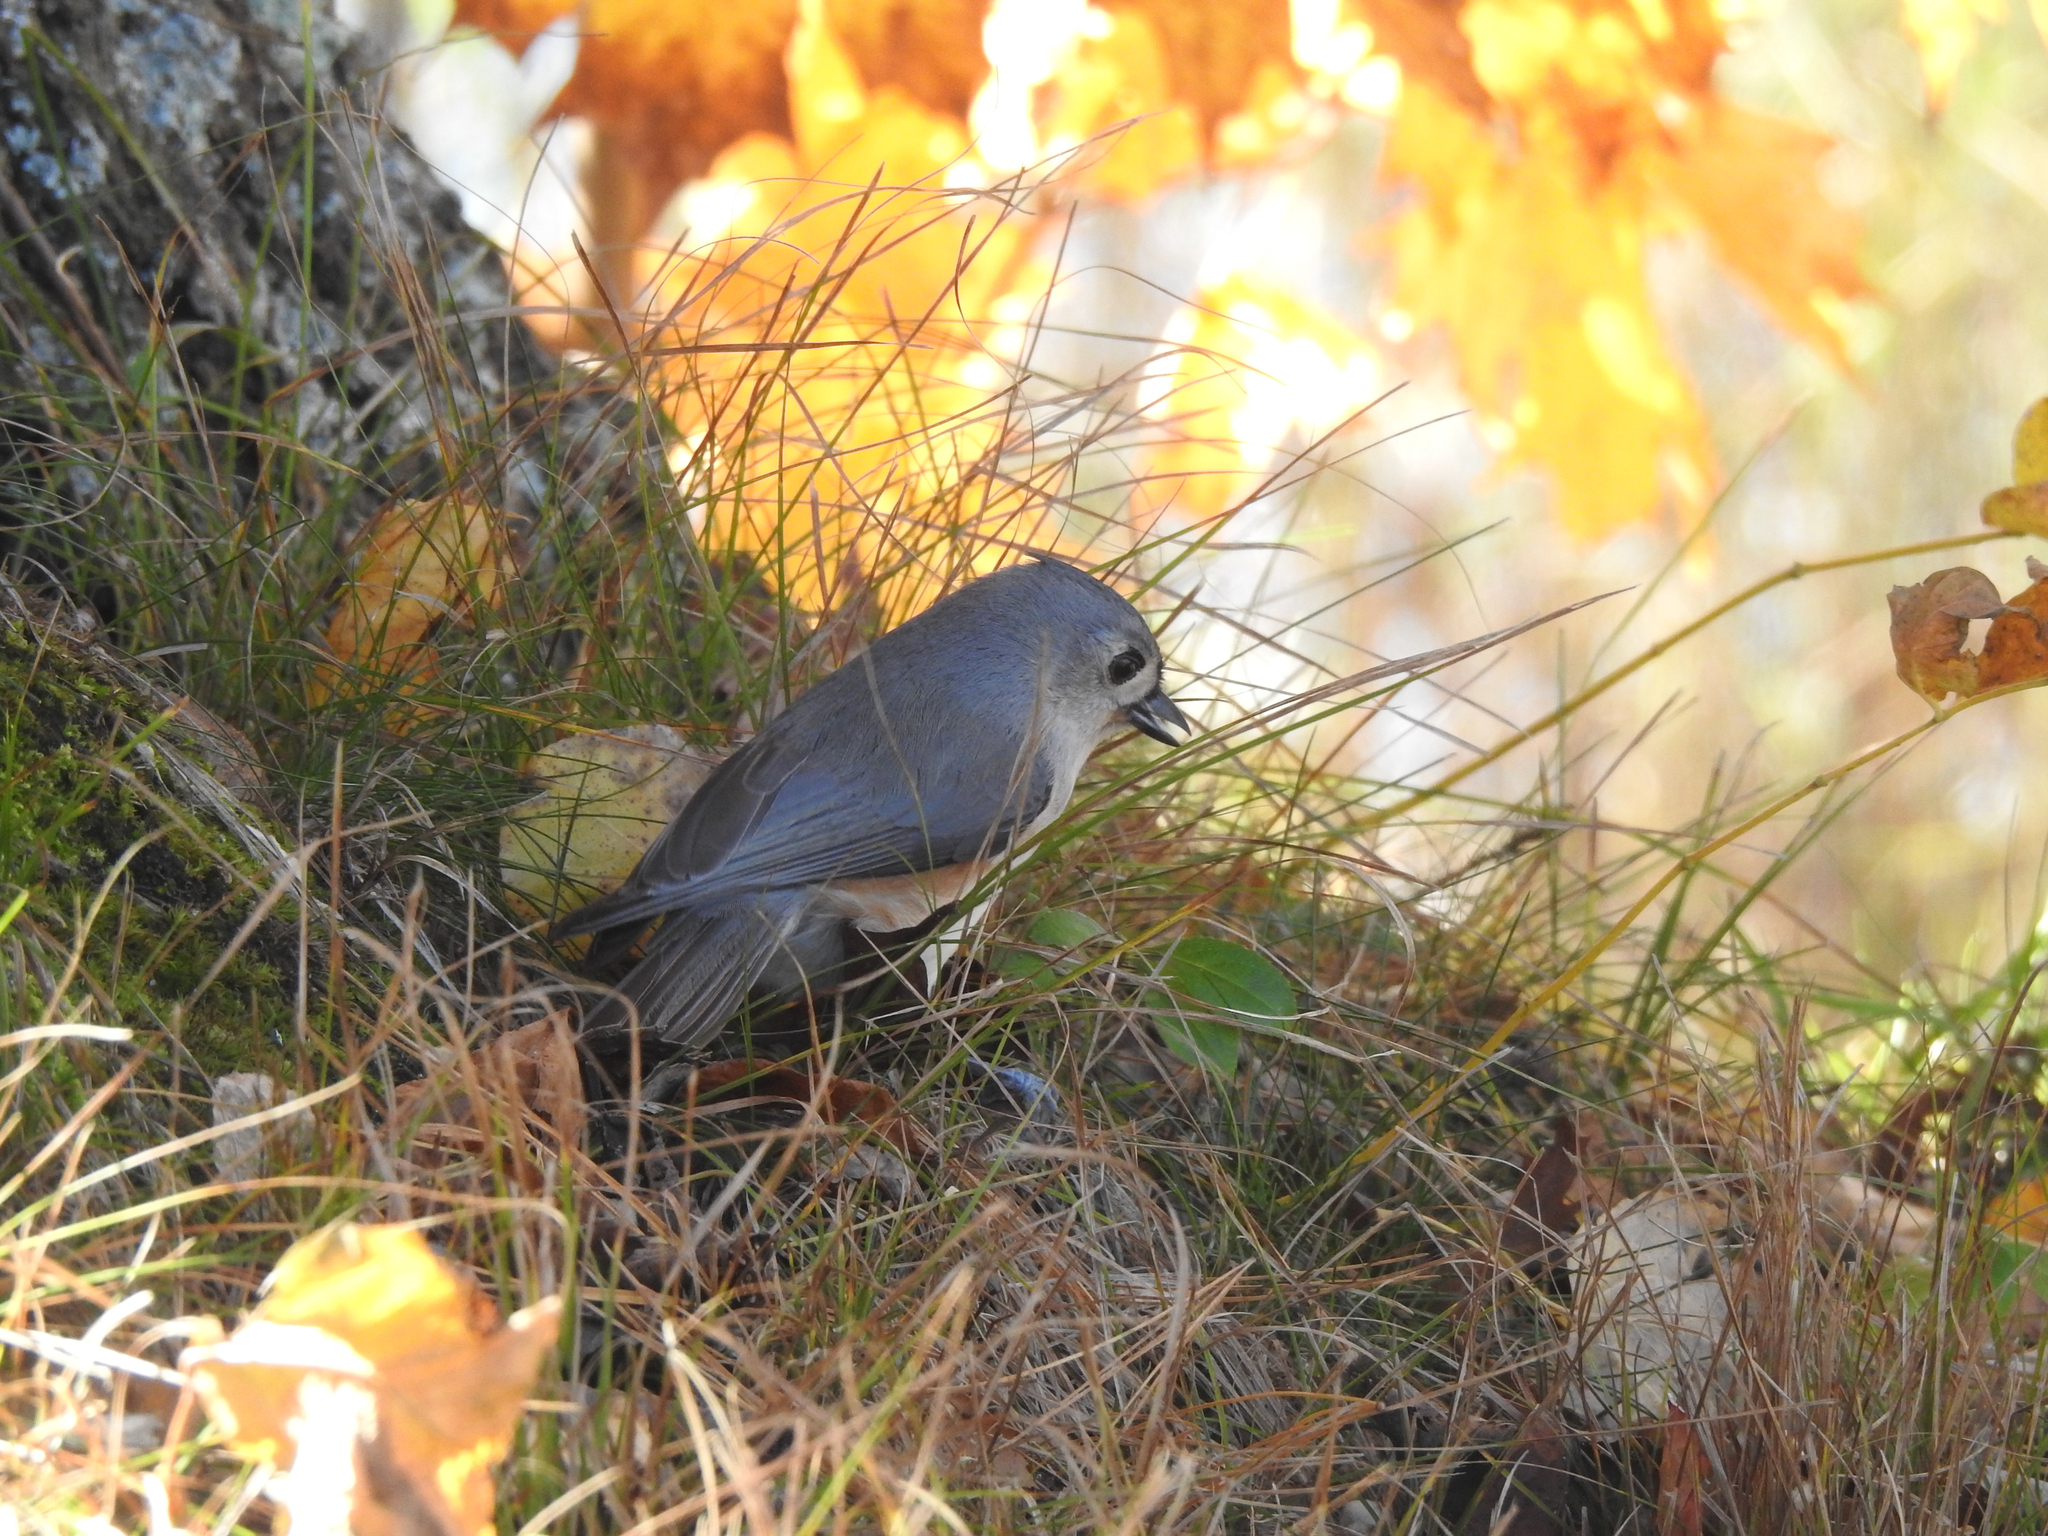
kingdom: Animalia
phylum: Chordata
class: Aves
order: Passeriformes
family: Paridae
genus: Baeolophus
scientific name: Baeolophus bicolor
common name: Tufted titmouse
